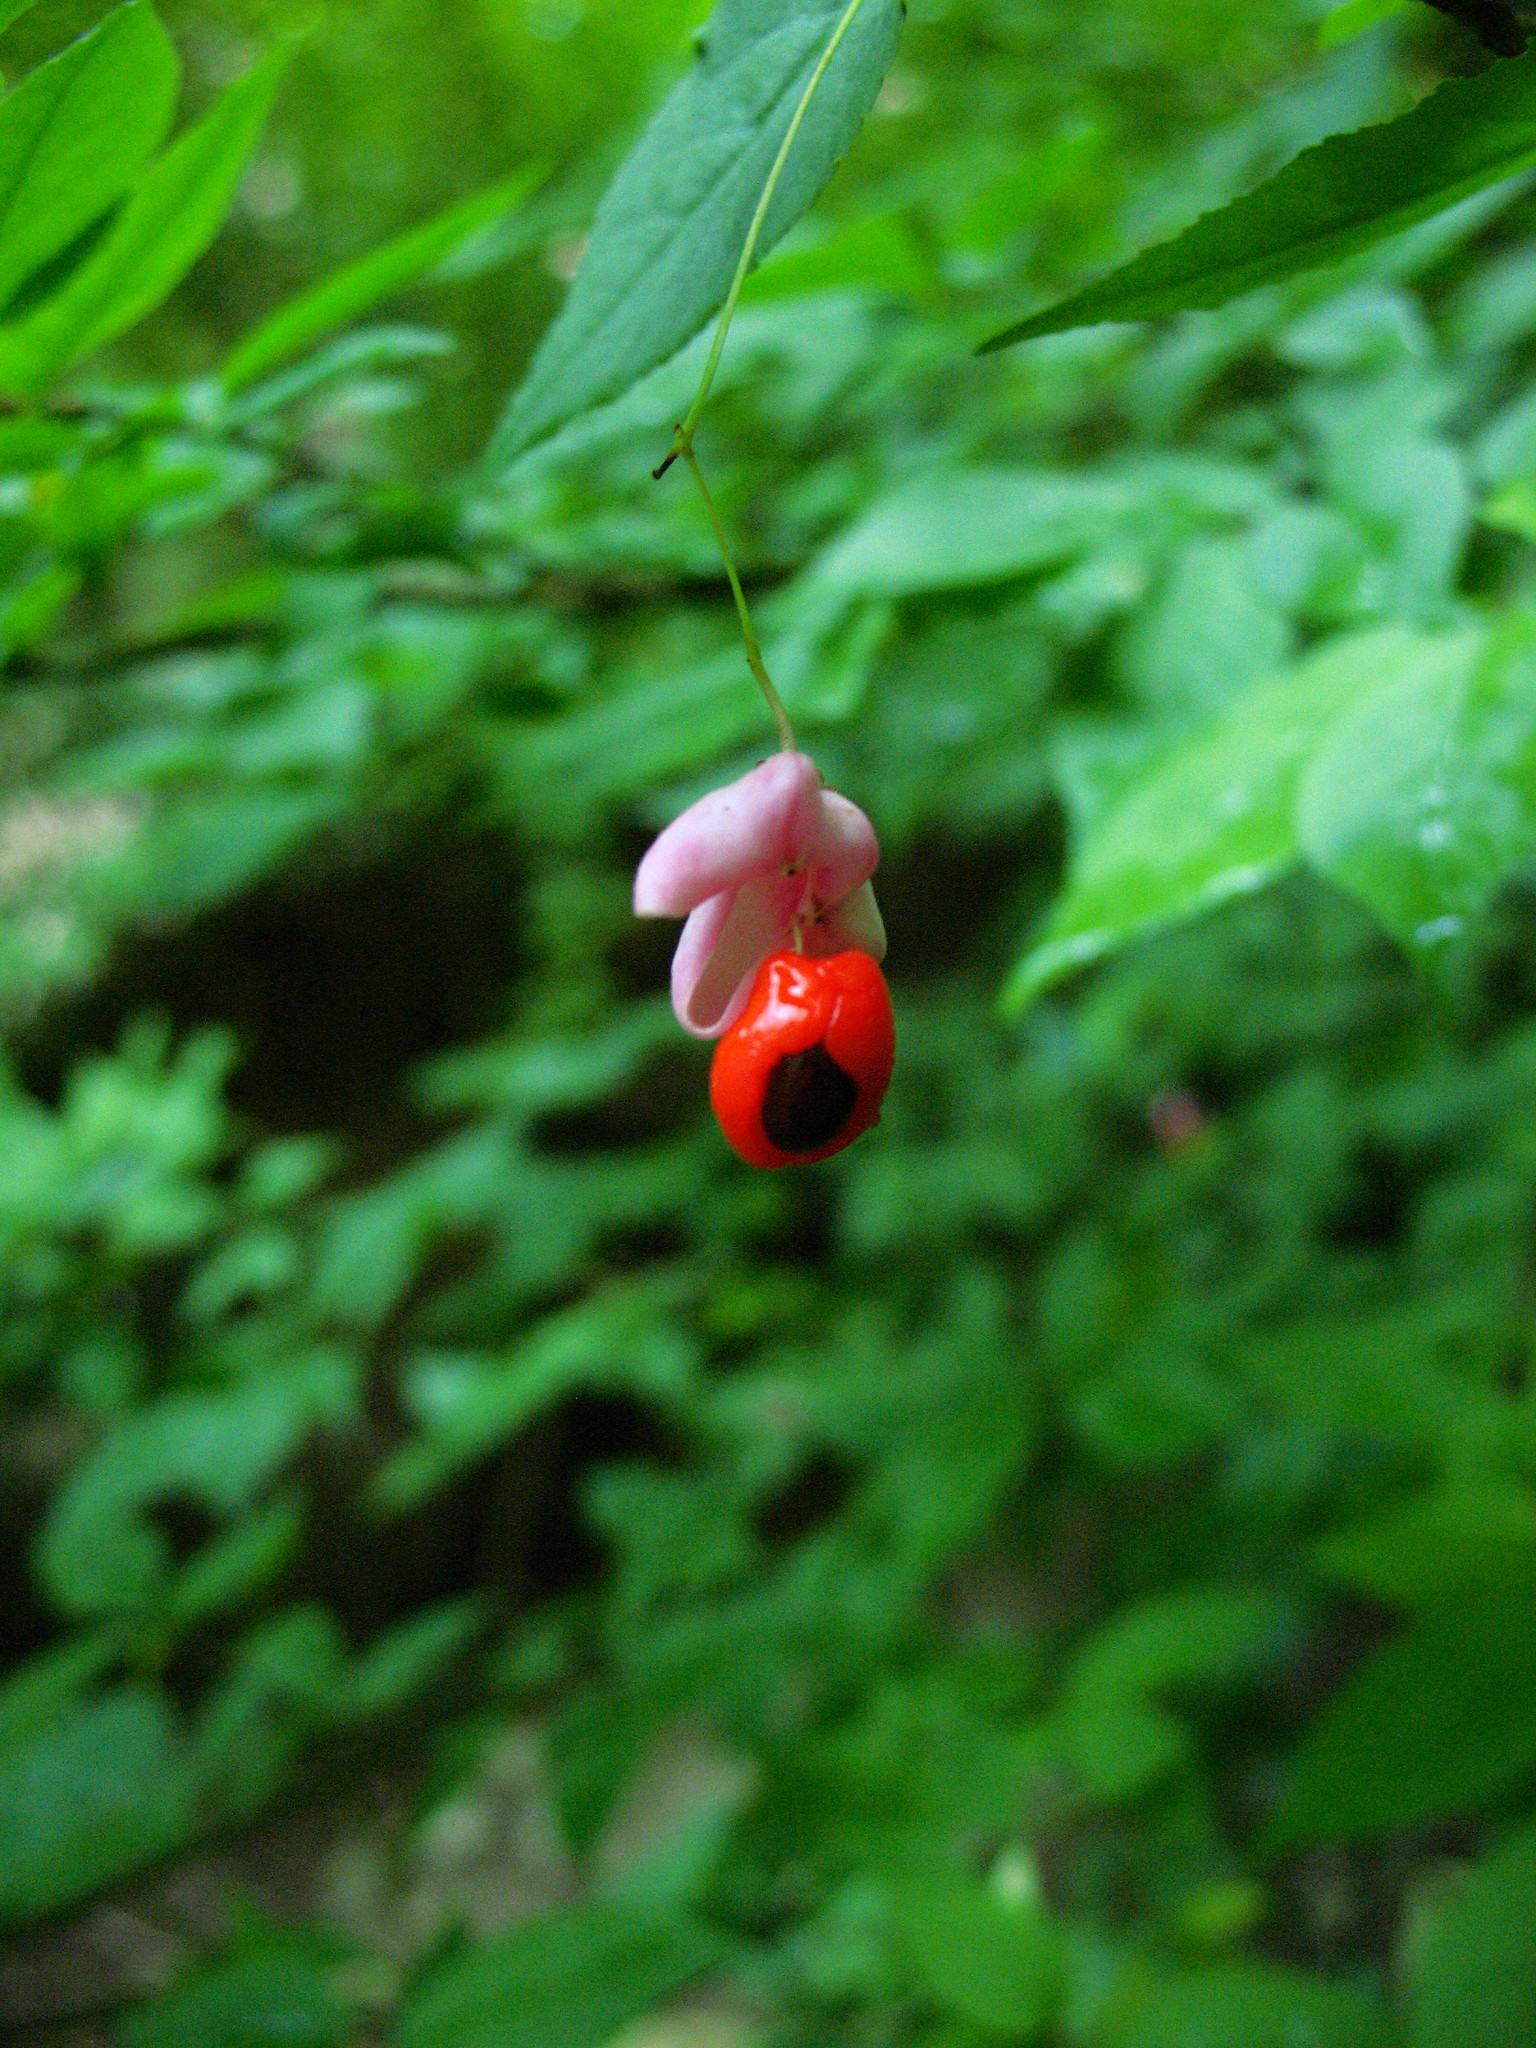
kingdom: Plantae
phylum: Tracheophyta
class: Magnoliopsida
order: Celastrales
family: Celastraceae
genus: Euonymus
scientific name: Euonymus verrucosus
